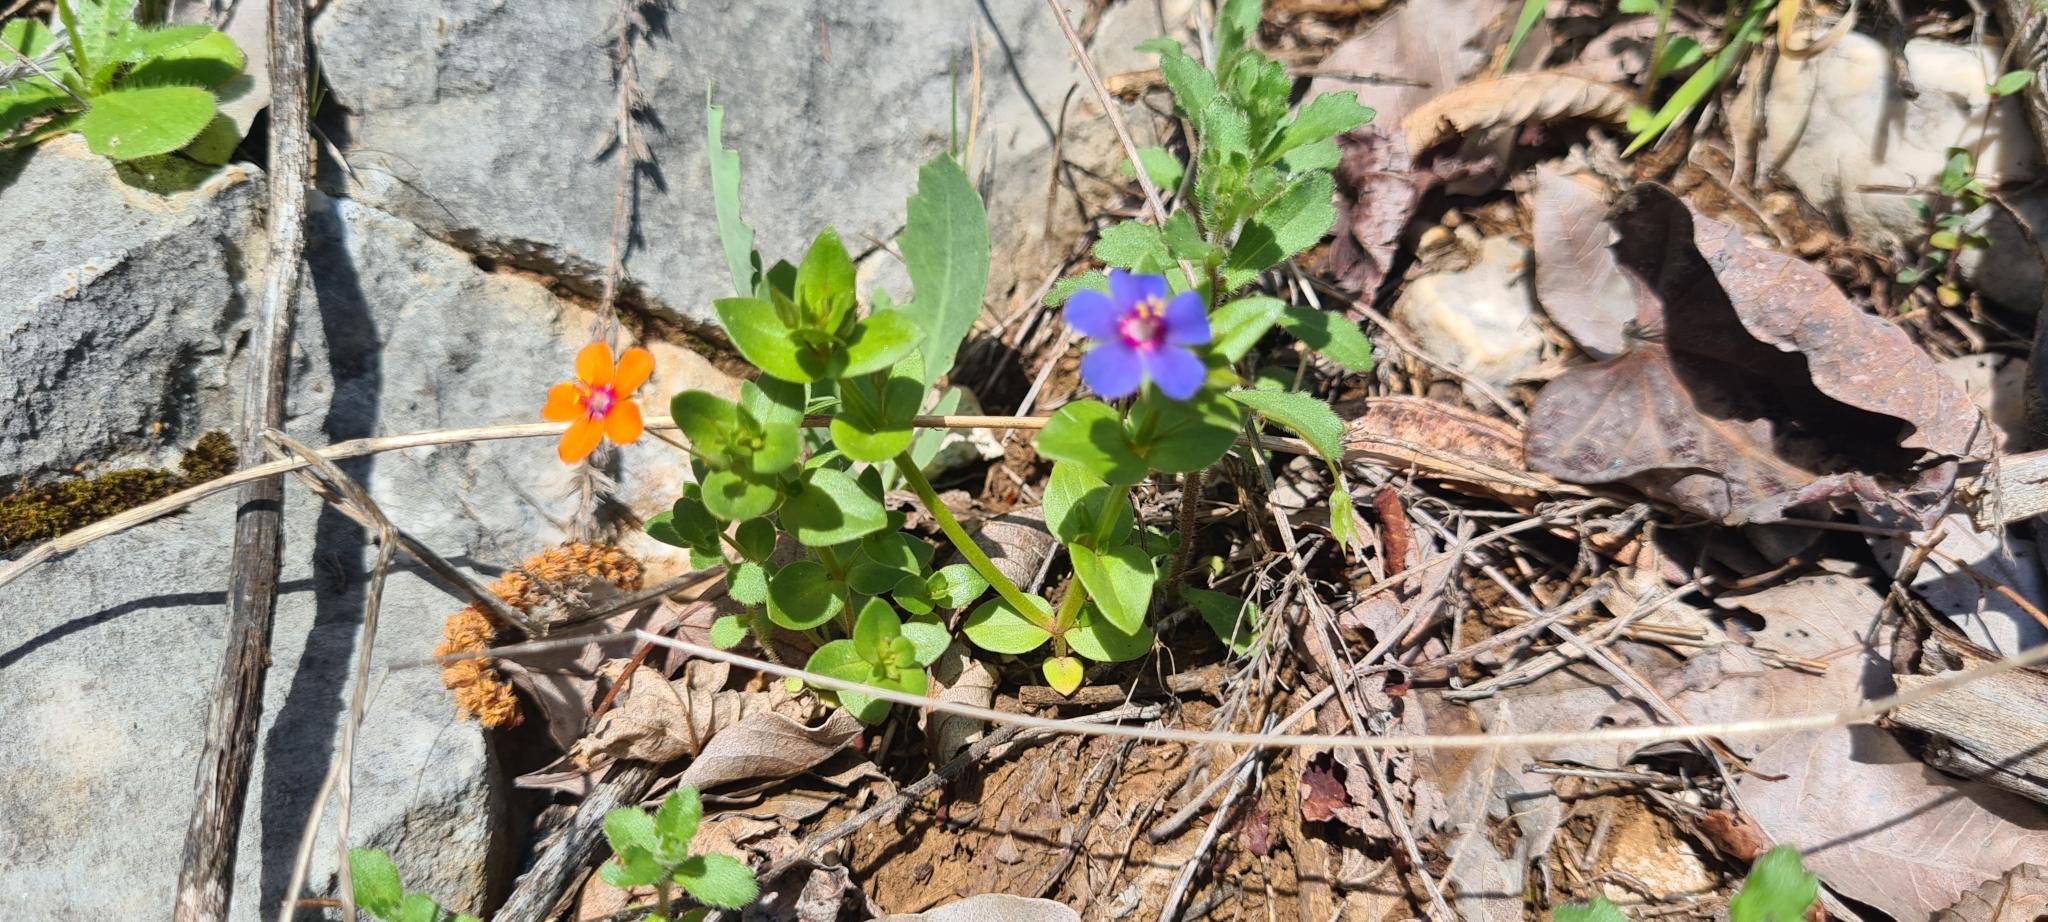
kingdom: Plantae
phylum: Tracheophyta
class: Magnoliopsida
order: Ericales
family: Primulaceae
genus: Lysimachia
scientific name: Lysimachia arvensis
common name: Scarlet pimpernel
